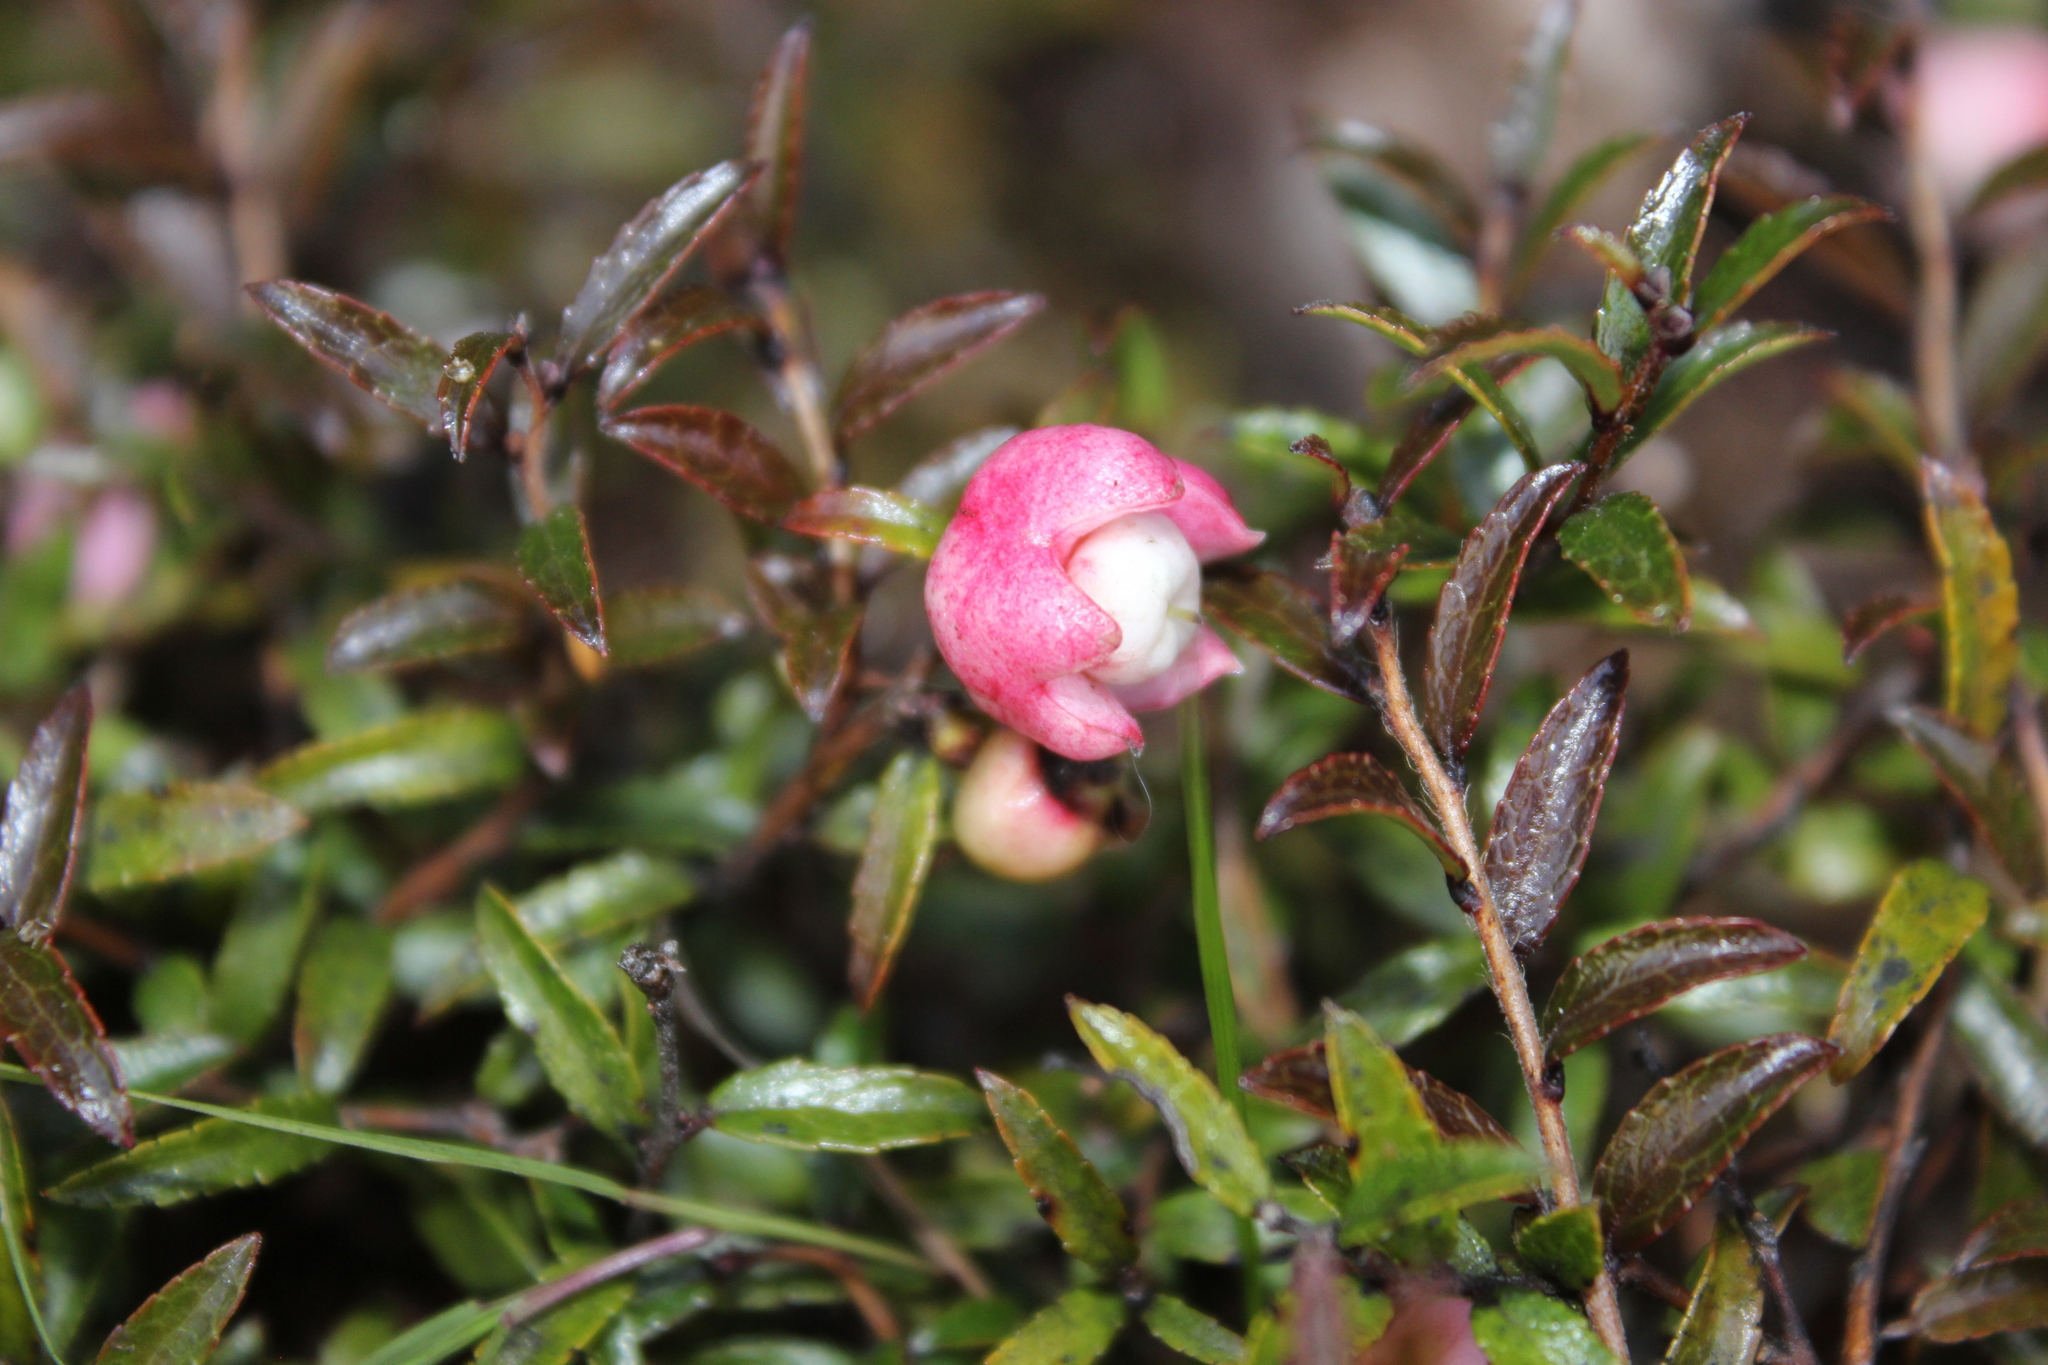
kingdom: Plantae
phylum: Tracheophyta
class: Magnoliopsida
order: Ericales
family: Ericaceae
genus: Gaultheria
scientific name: Gaultheria
